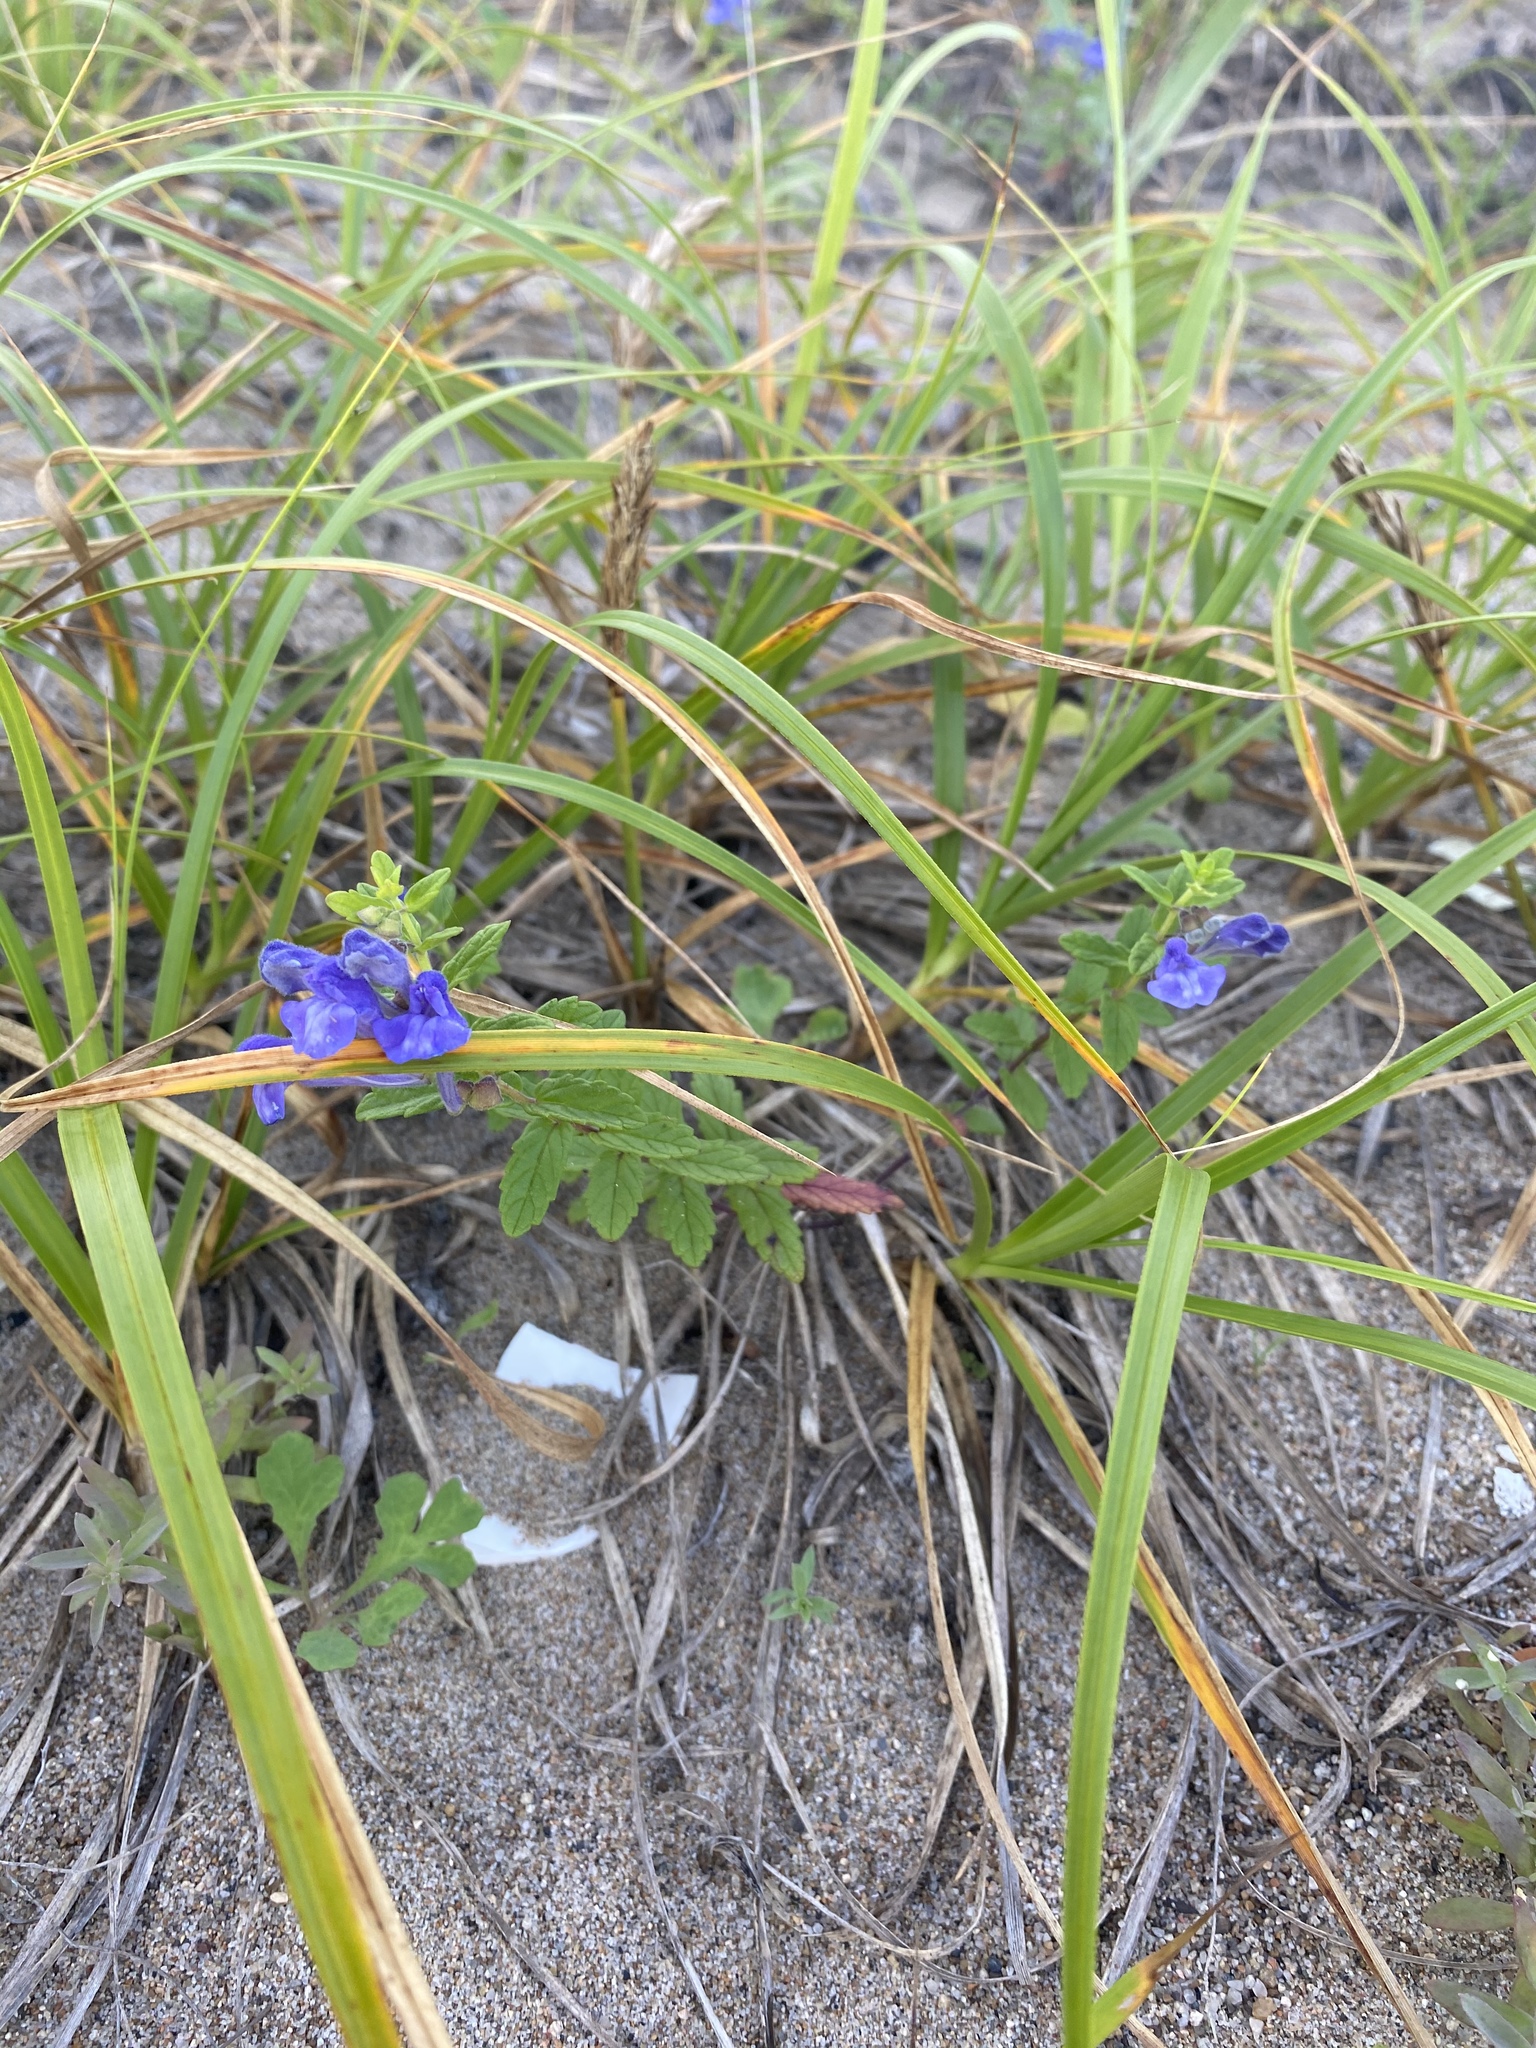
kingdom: Plantae
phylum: Tracheophyta
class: Magnoliopsida
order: Lamiales
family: Lamiaceae
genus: Scutellaria
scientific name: Scutellaria strigillosa
